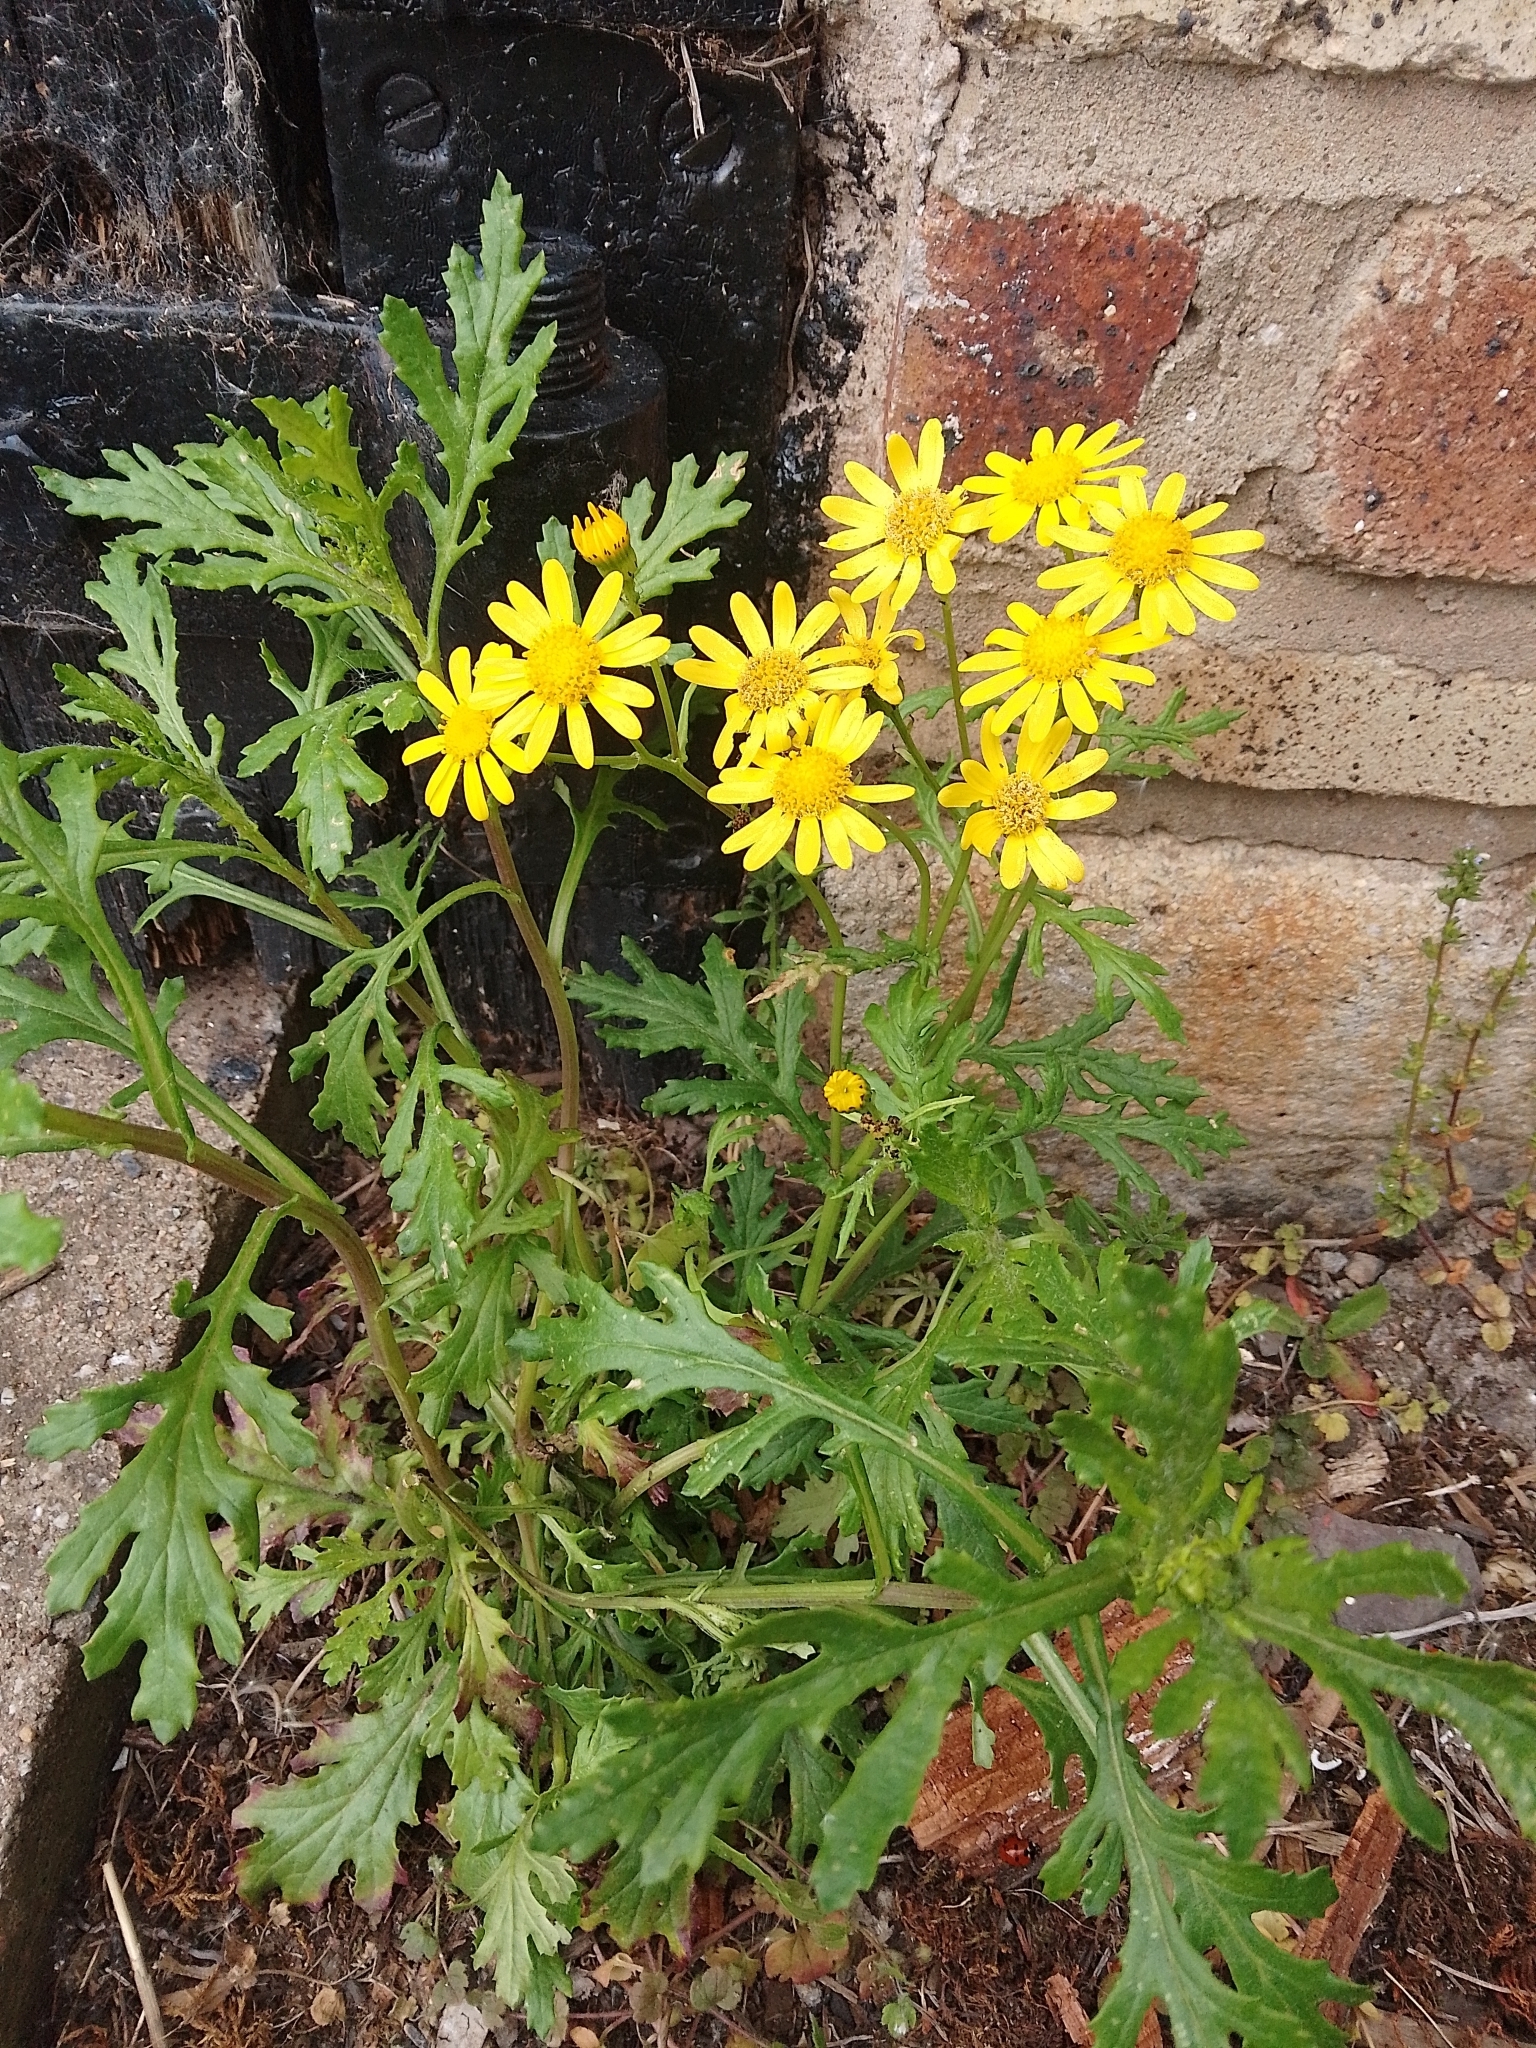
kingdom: Plantae
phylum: Tracheophyta
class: Magnoliopsida
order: Asterales
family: Asteraceae
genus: Senecio
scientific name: Senecio squalidus
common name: Oxford ragwort
